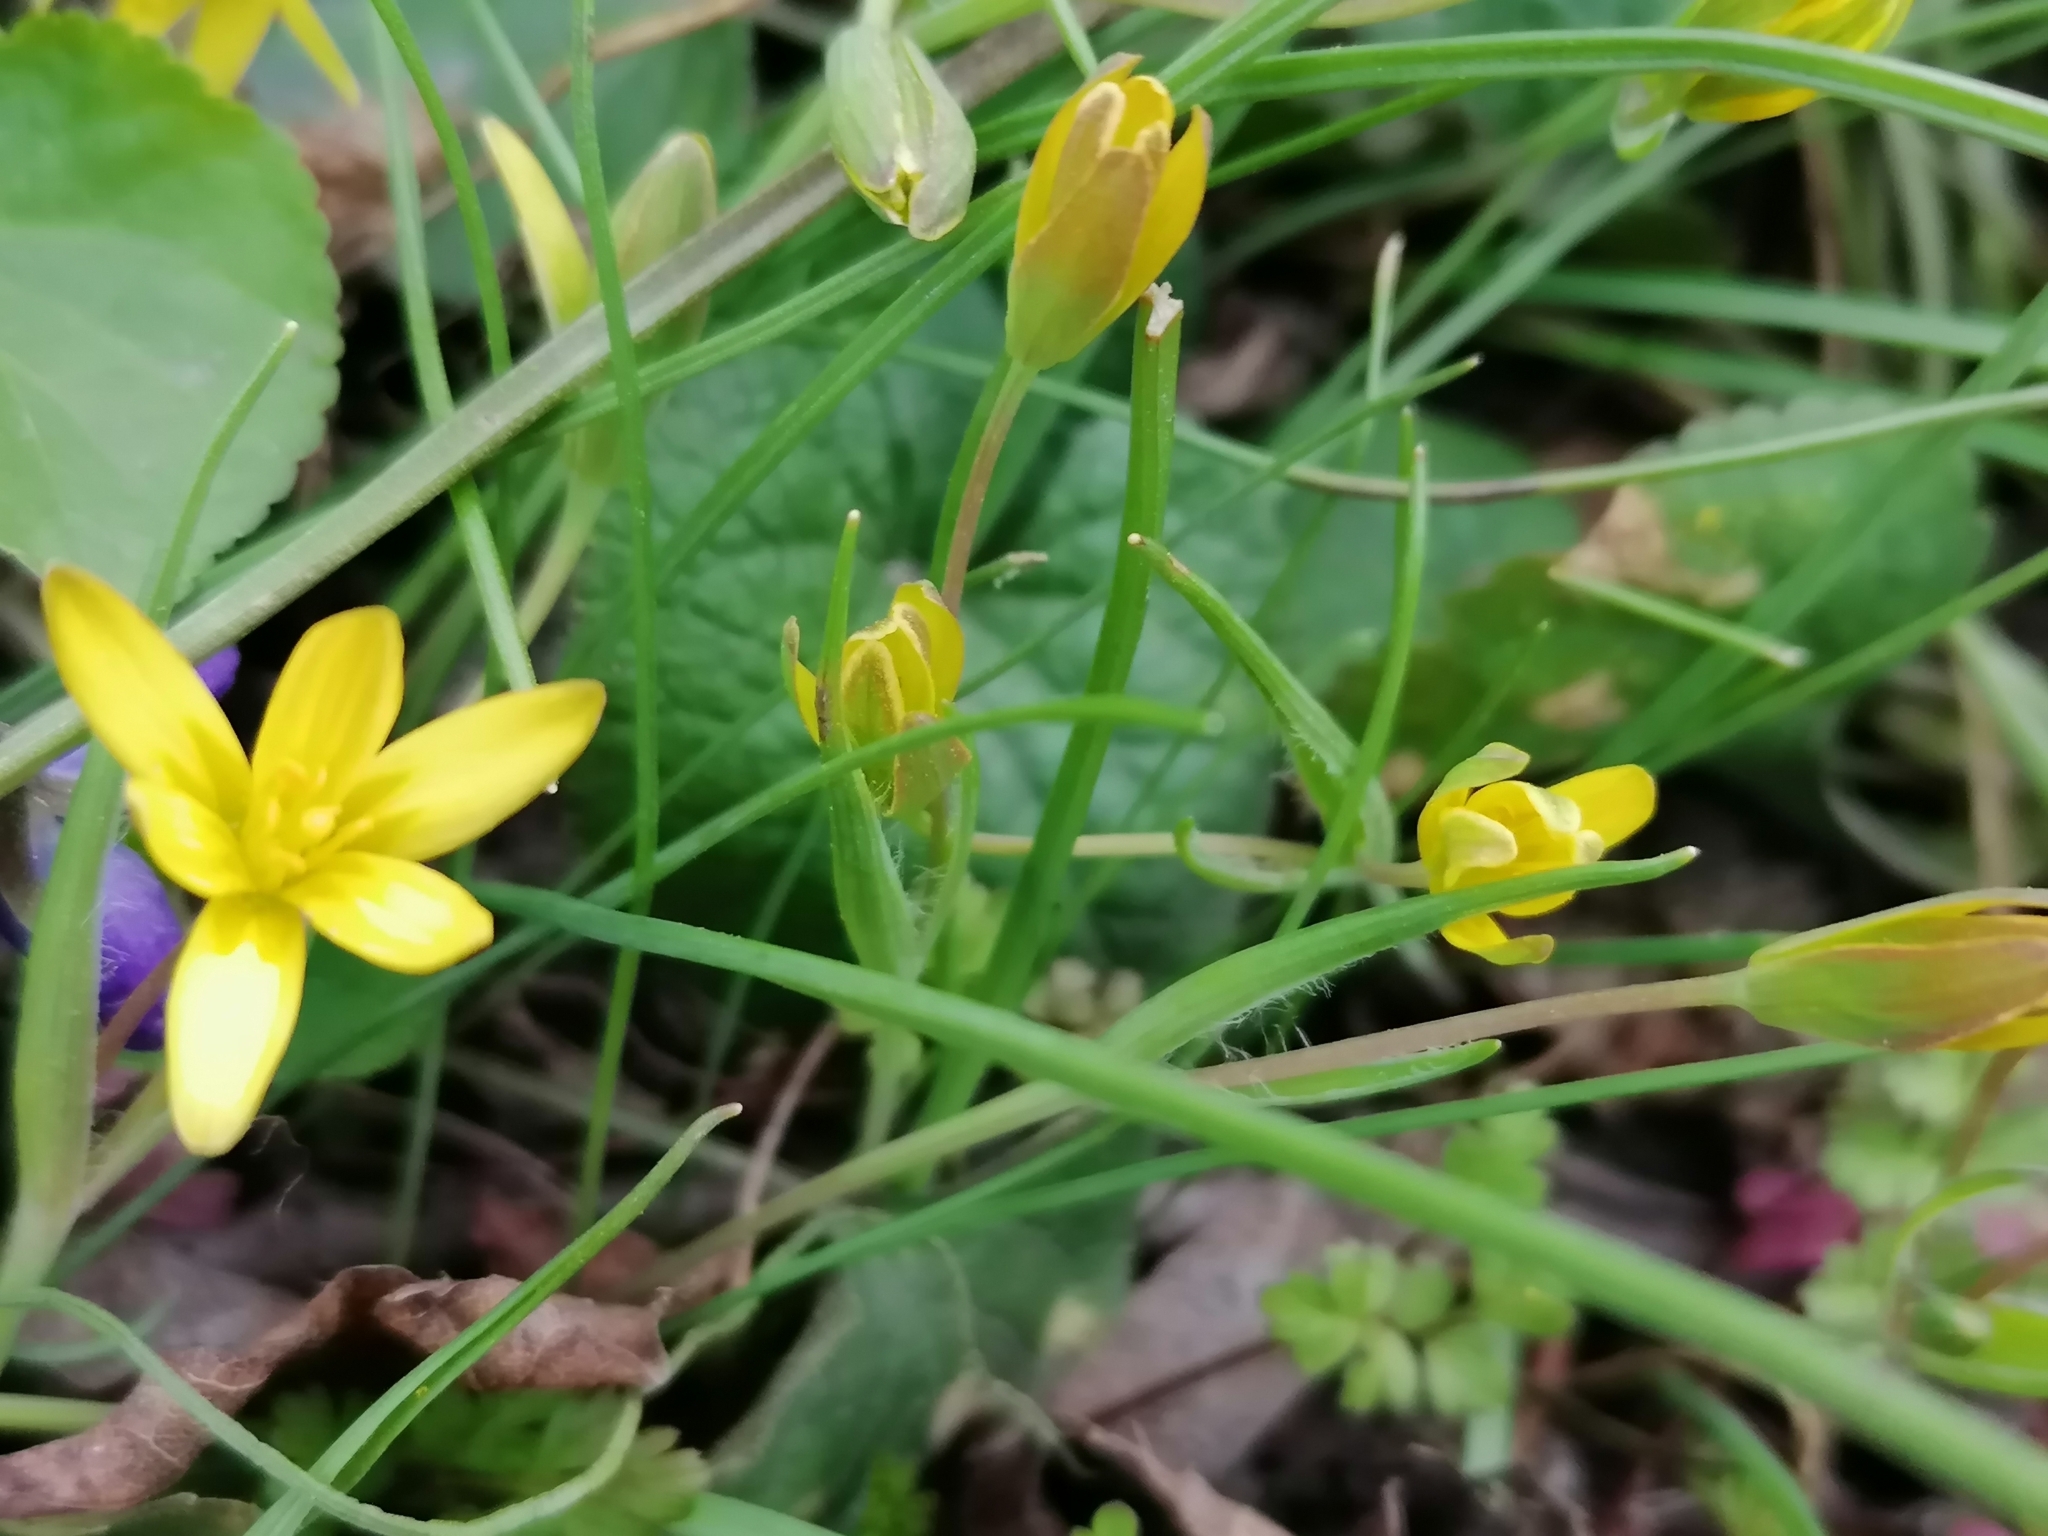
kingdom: Plantae
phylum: Tracheophyta
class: Liliopsida
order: Liliales
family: Liliaceae
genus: Gagea
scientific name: Gagea lutea
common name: Yellow star-of-bethlehem
